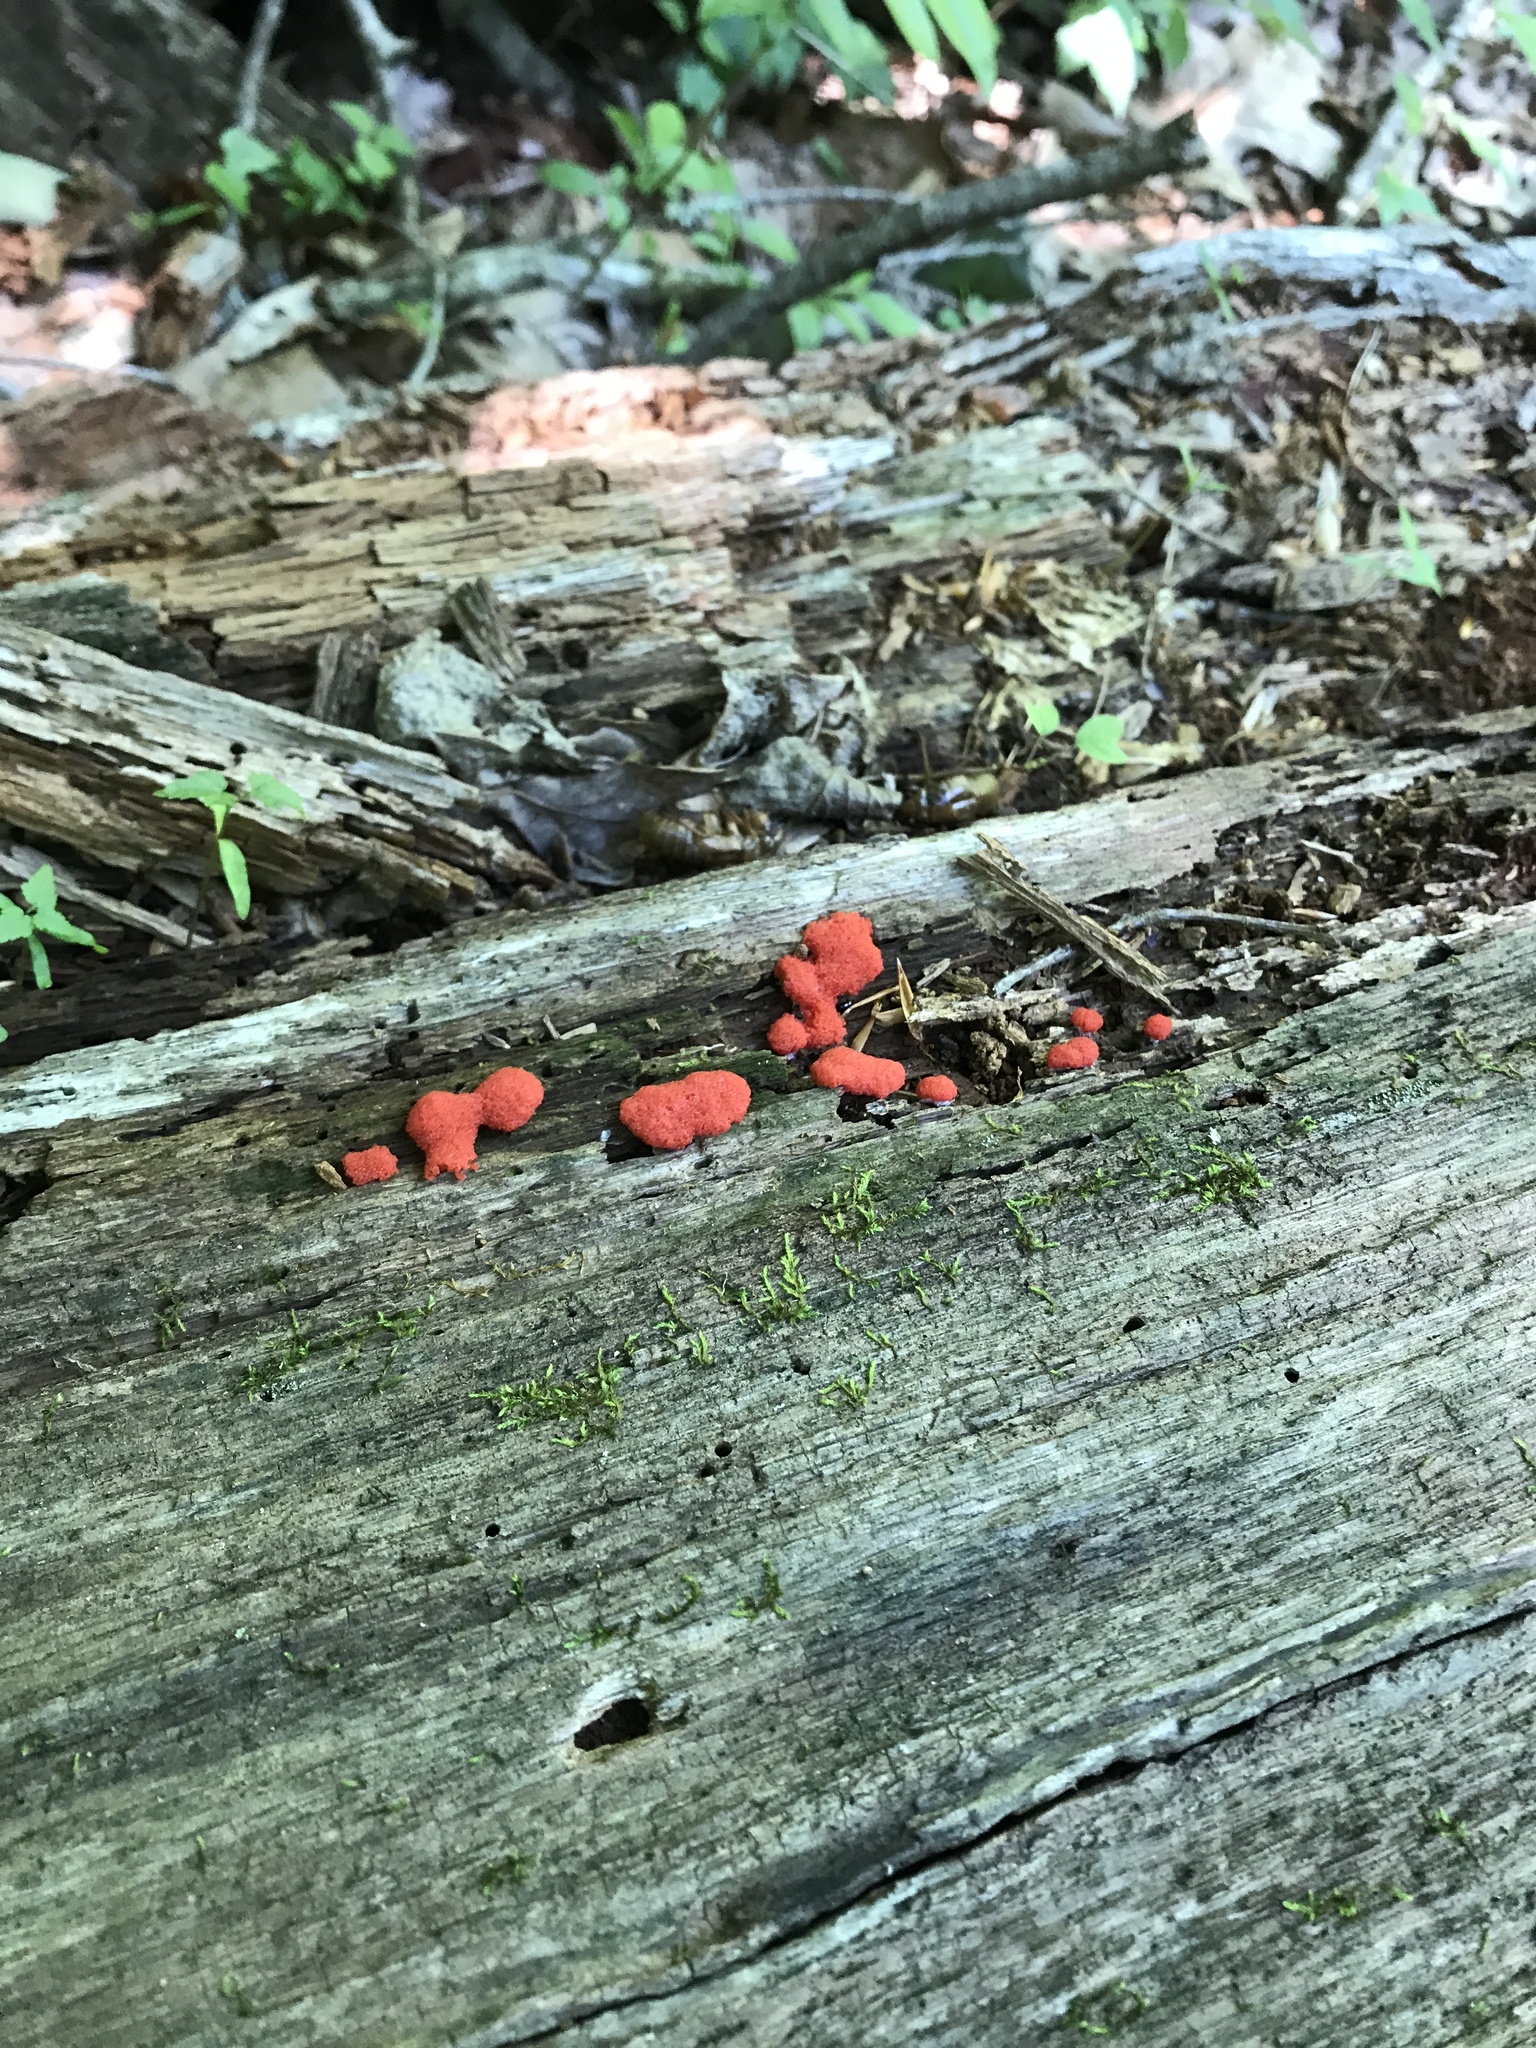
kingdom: Protozoa
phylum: Mycetozoa
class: Myxomycetes
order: Cribrariales
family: Tubiferaceae
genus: Tubifera
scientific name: Tubifera ferruginosa
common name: Red raspberry slime mold
